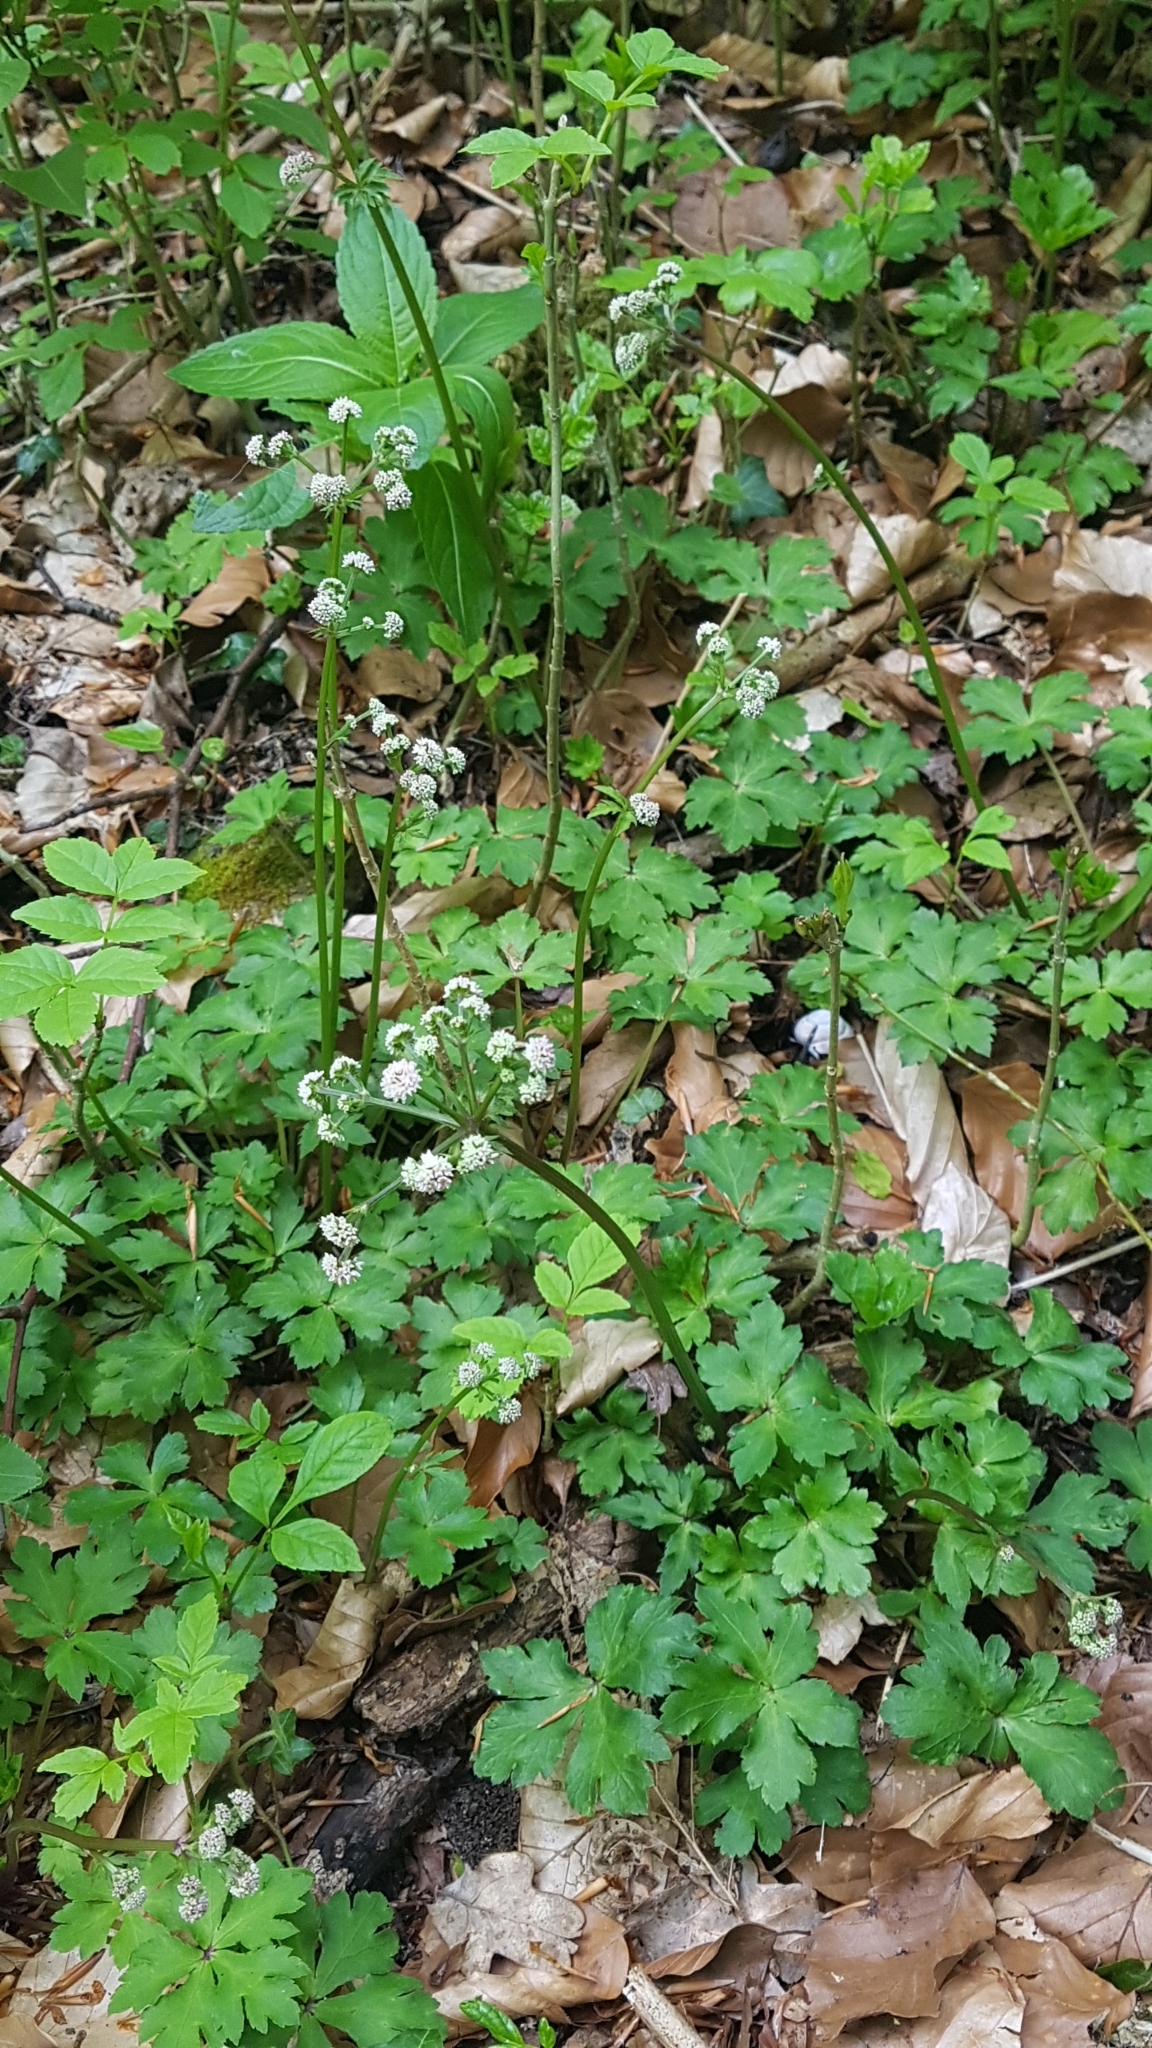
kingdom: Plantae
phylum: Tracheophyta
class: Magnoliopsida
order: Apiales
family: Apiaceae
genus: Sanicula
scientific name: Sanicula europaea
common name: Sanicle
